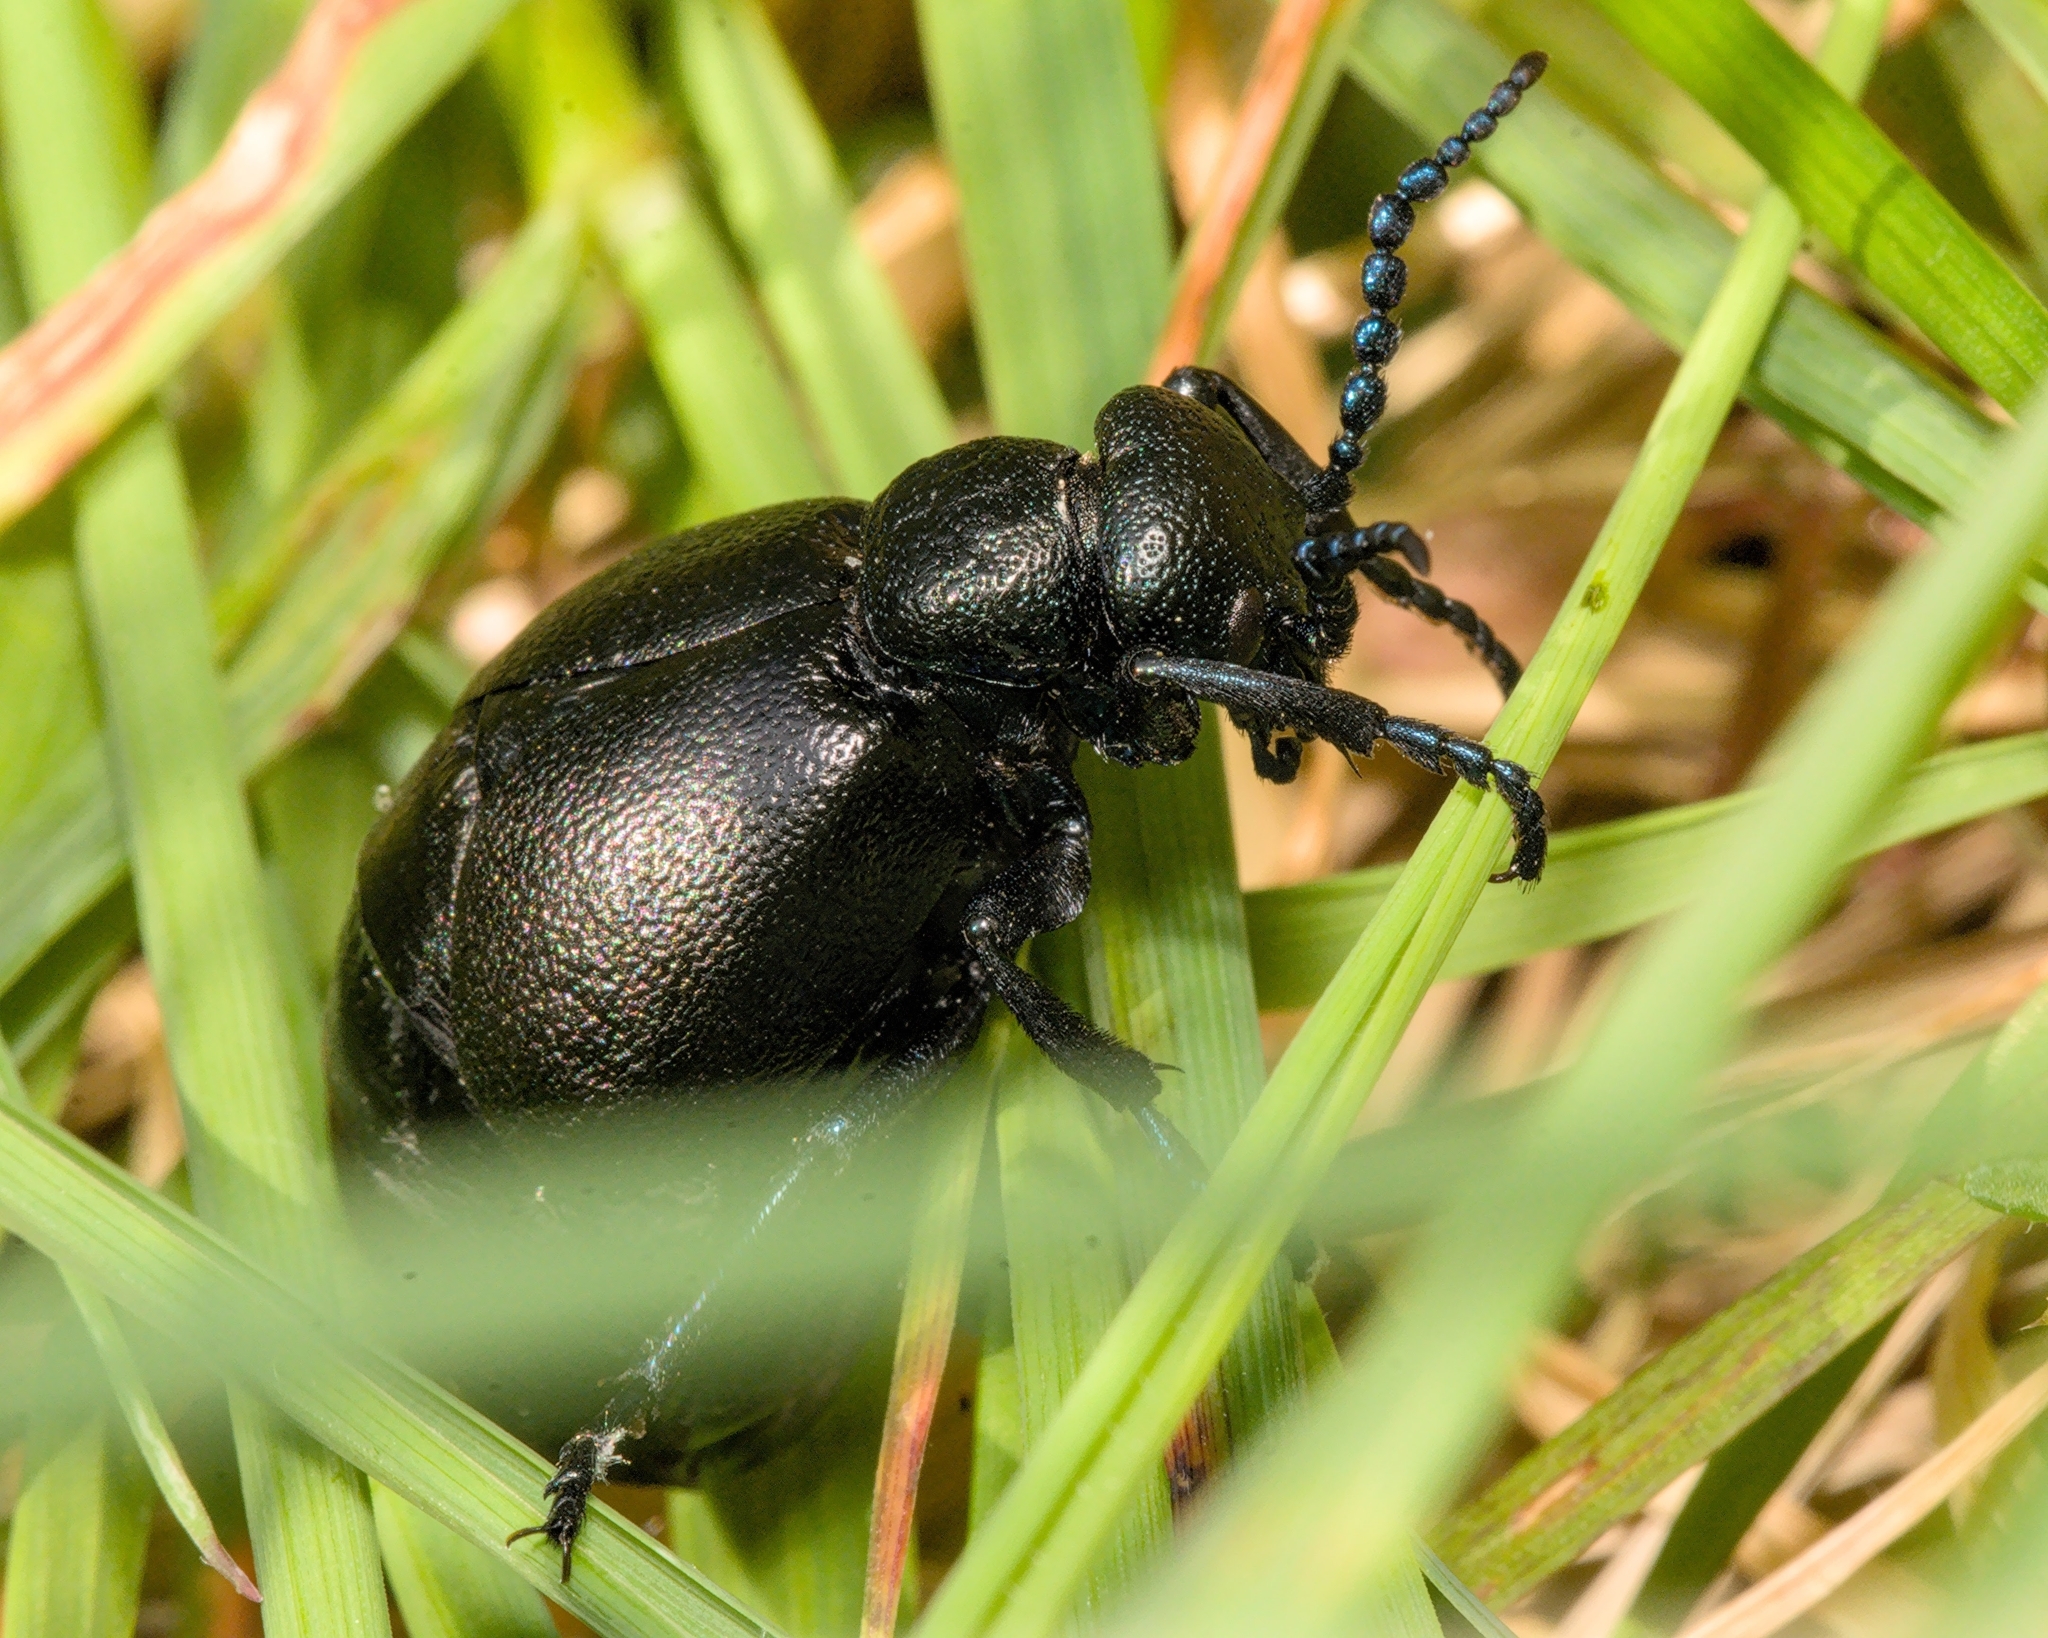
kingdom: Animalia
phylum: Arthropoda
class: Insecta
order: Coleoptera
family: Meloidae
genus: Meloe
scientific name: Meloe proscarabaeus
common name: Black oil-beetle
